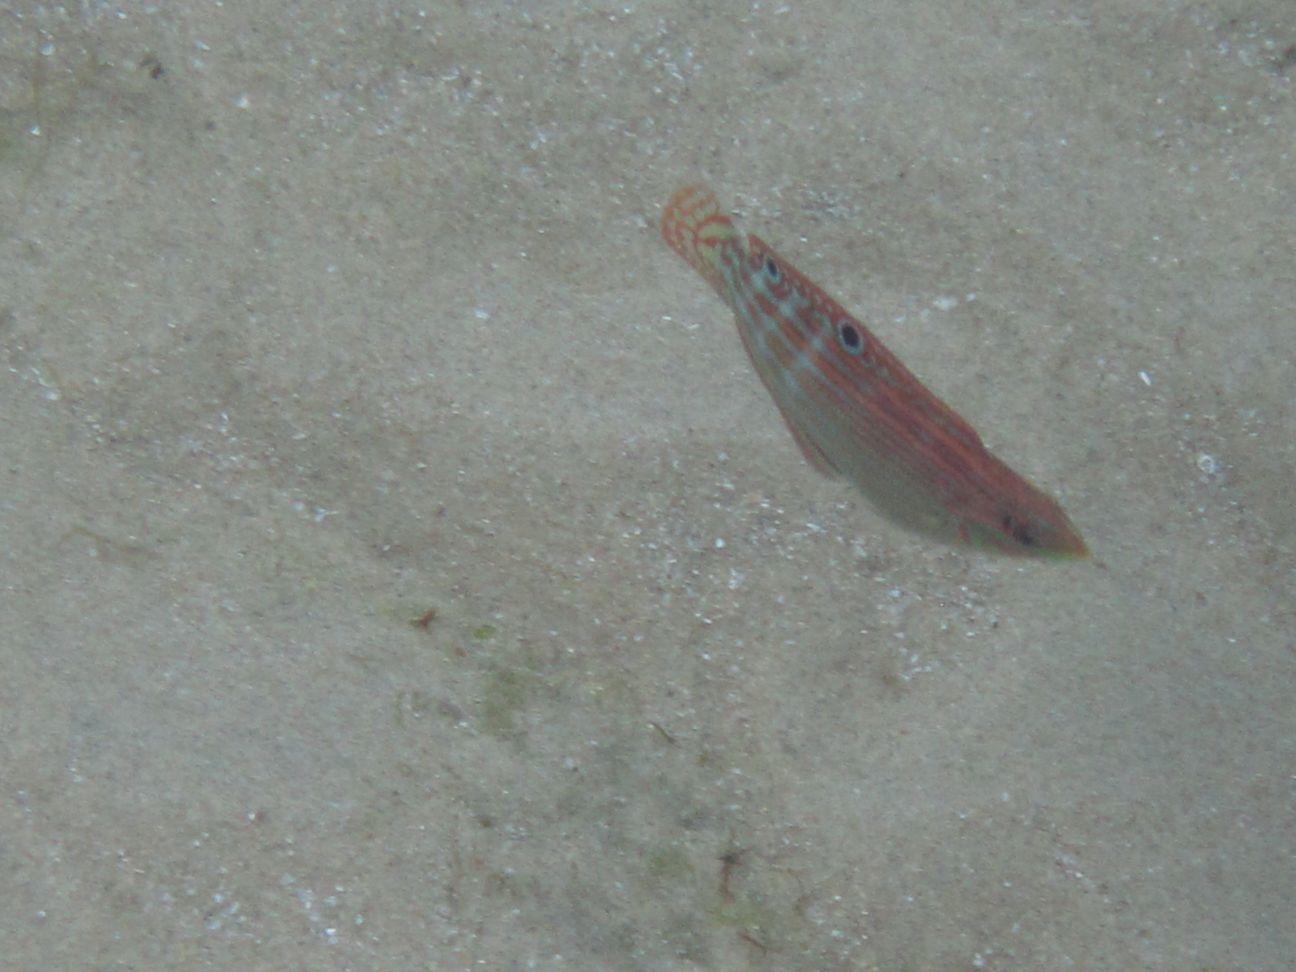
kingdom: Animalia
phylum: Chordata
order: Perciformes
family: Labridae
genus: Halichoeres
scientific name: Halichoeres cosmetus
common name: Adorned wrasse
